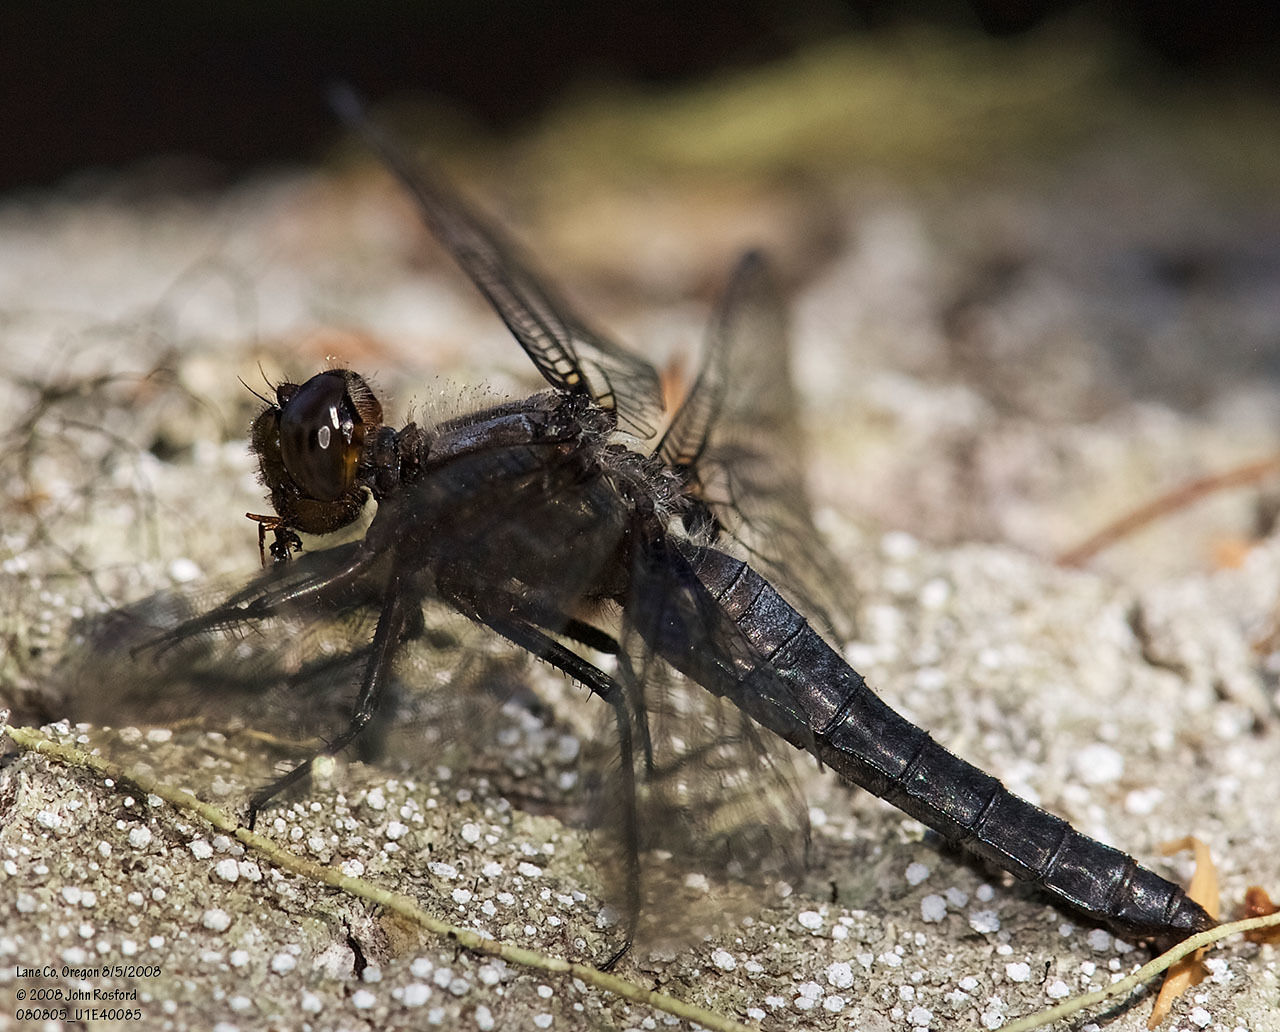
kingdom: Animalia
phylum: Arthropoda
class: Insecta
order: Odonata
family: Libellulidae
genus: Ladona
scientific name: Ladona julia
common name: Chalk-fronted corporal
